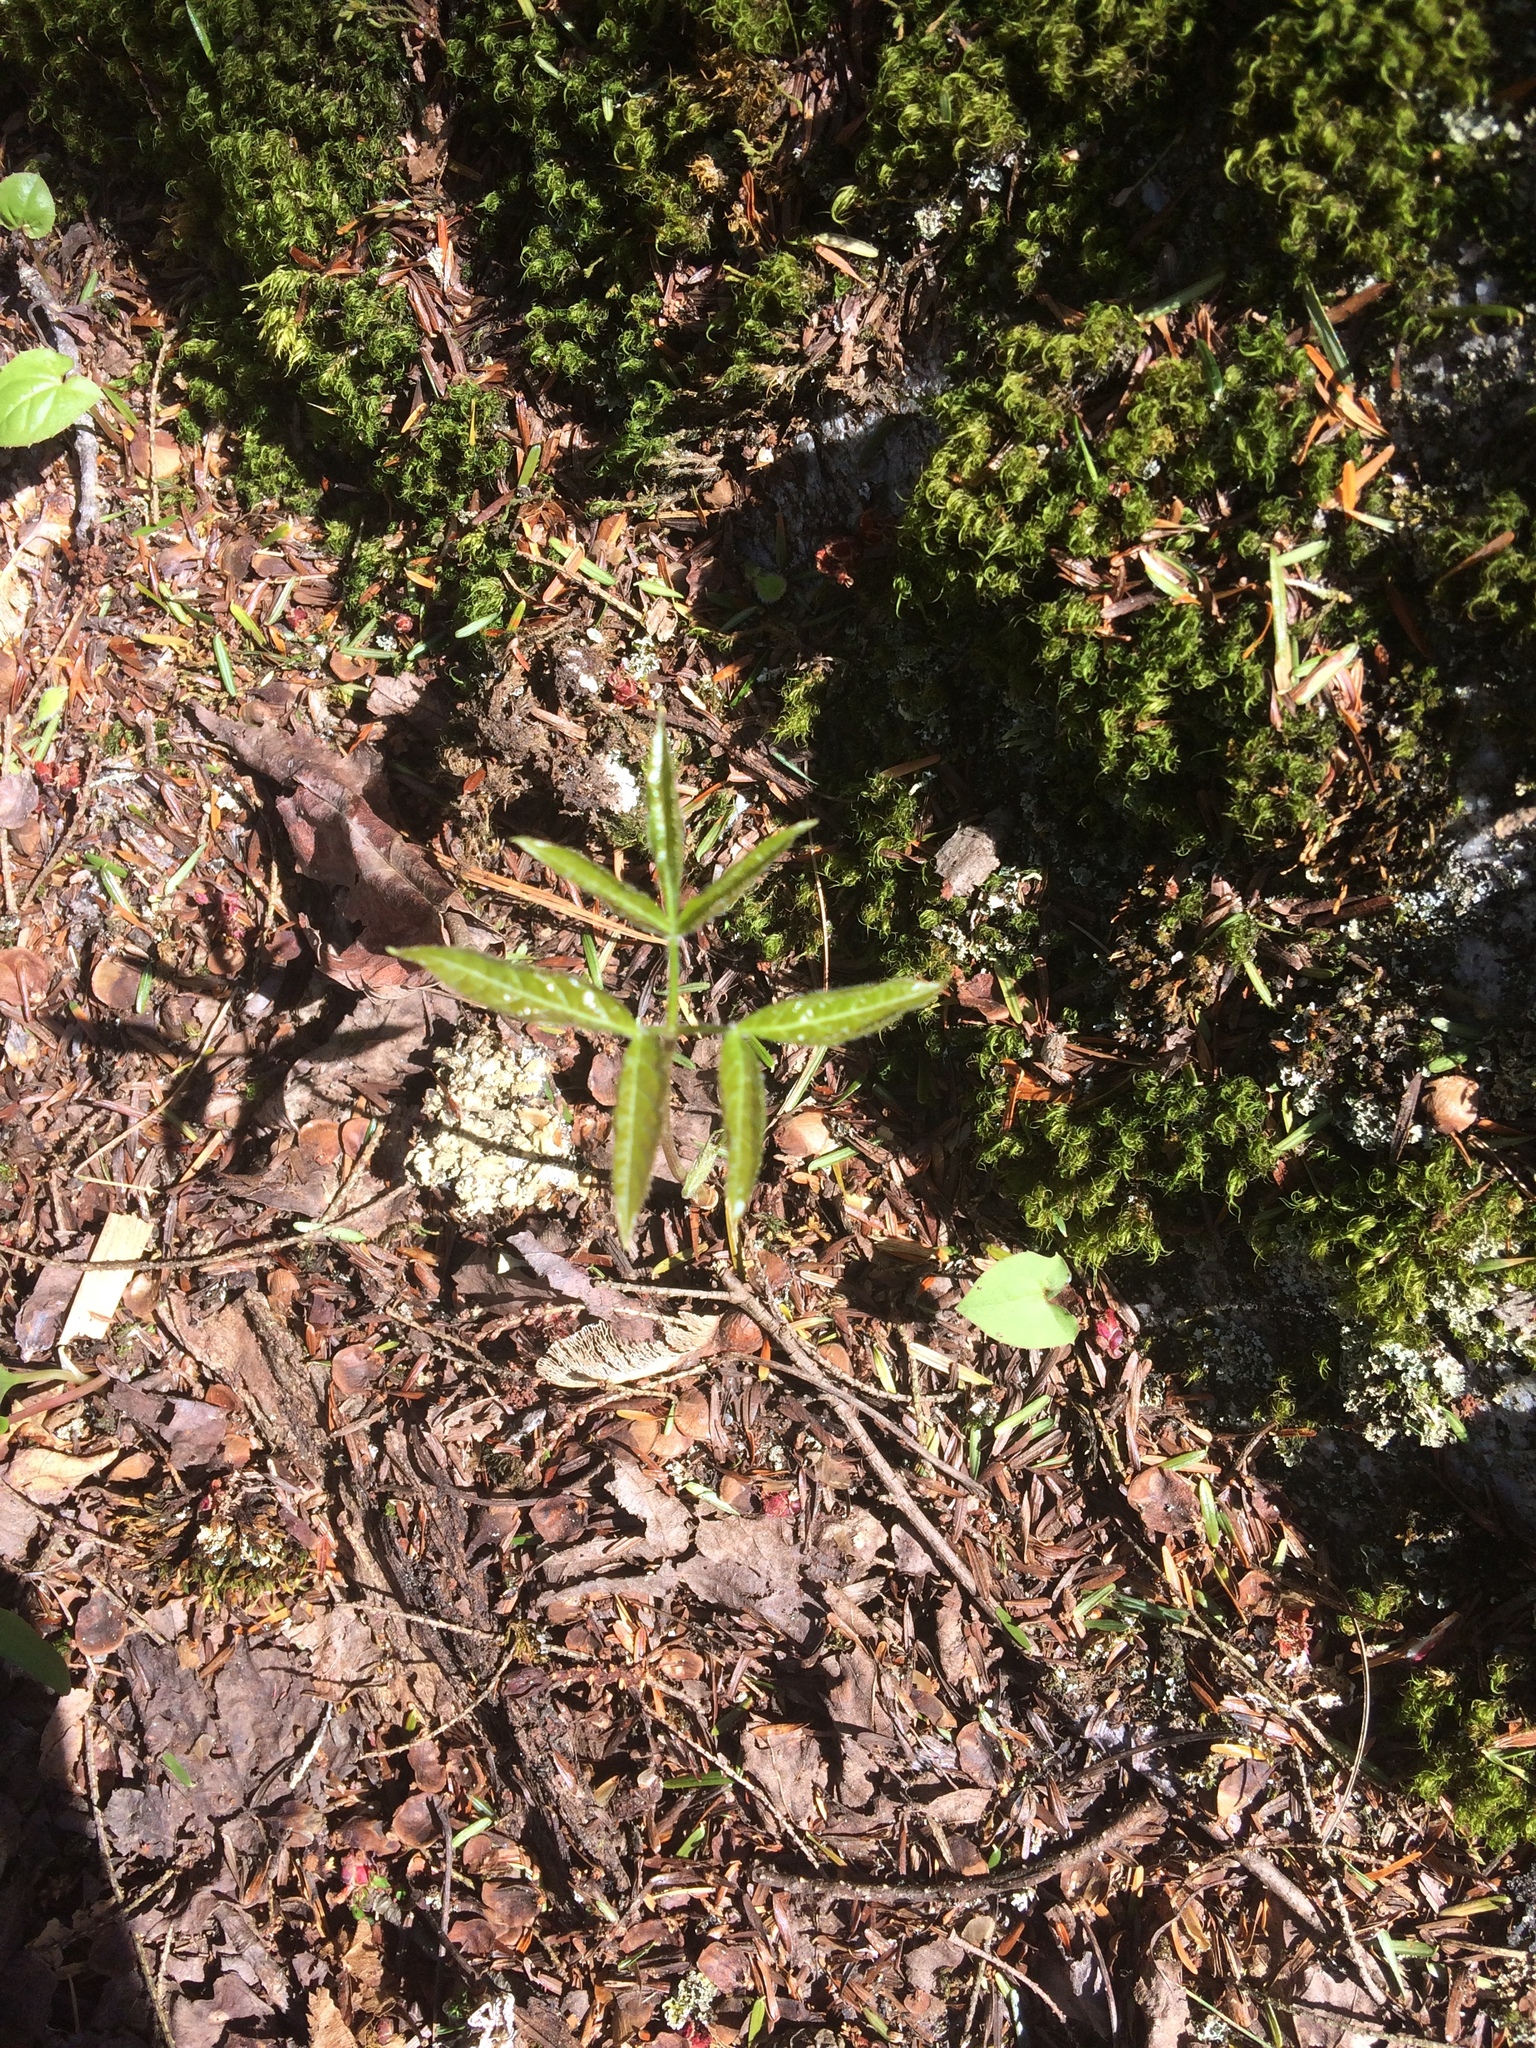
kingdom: Plantae
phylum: Tracheophyta
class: Magnoliopsida
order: Apiales
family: Araliaceae
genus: Aralia
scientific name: Aralia nudicaulis
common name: Wild sarsaparilla
